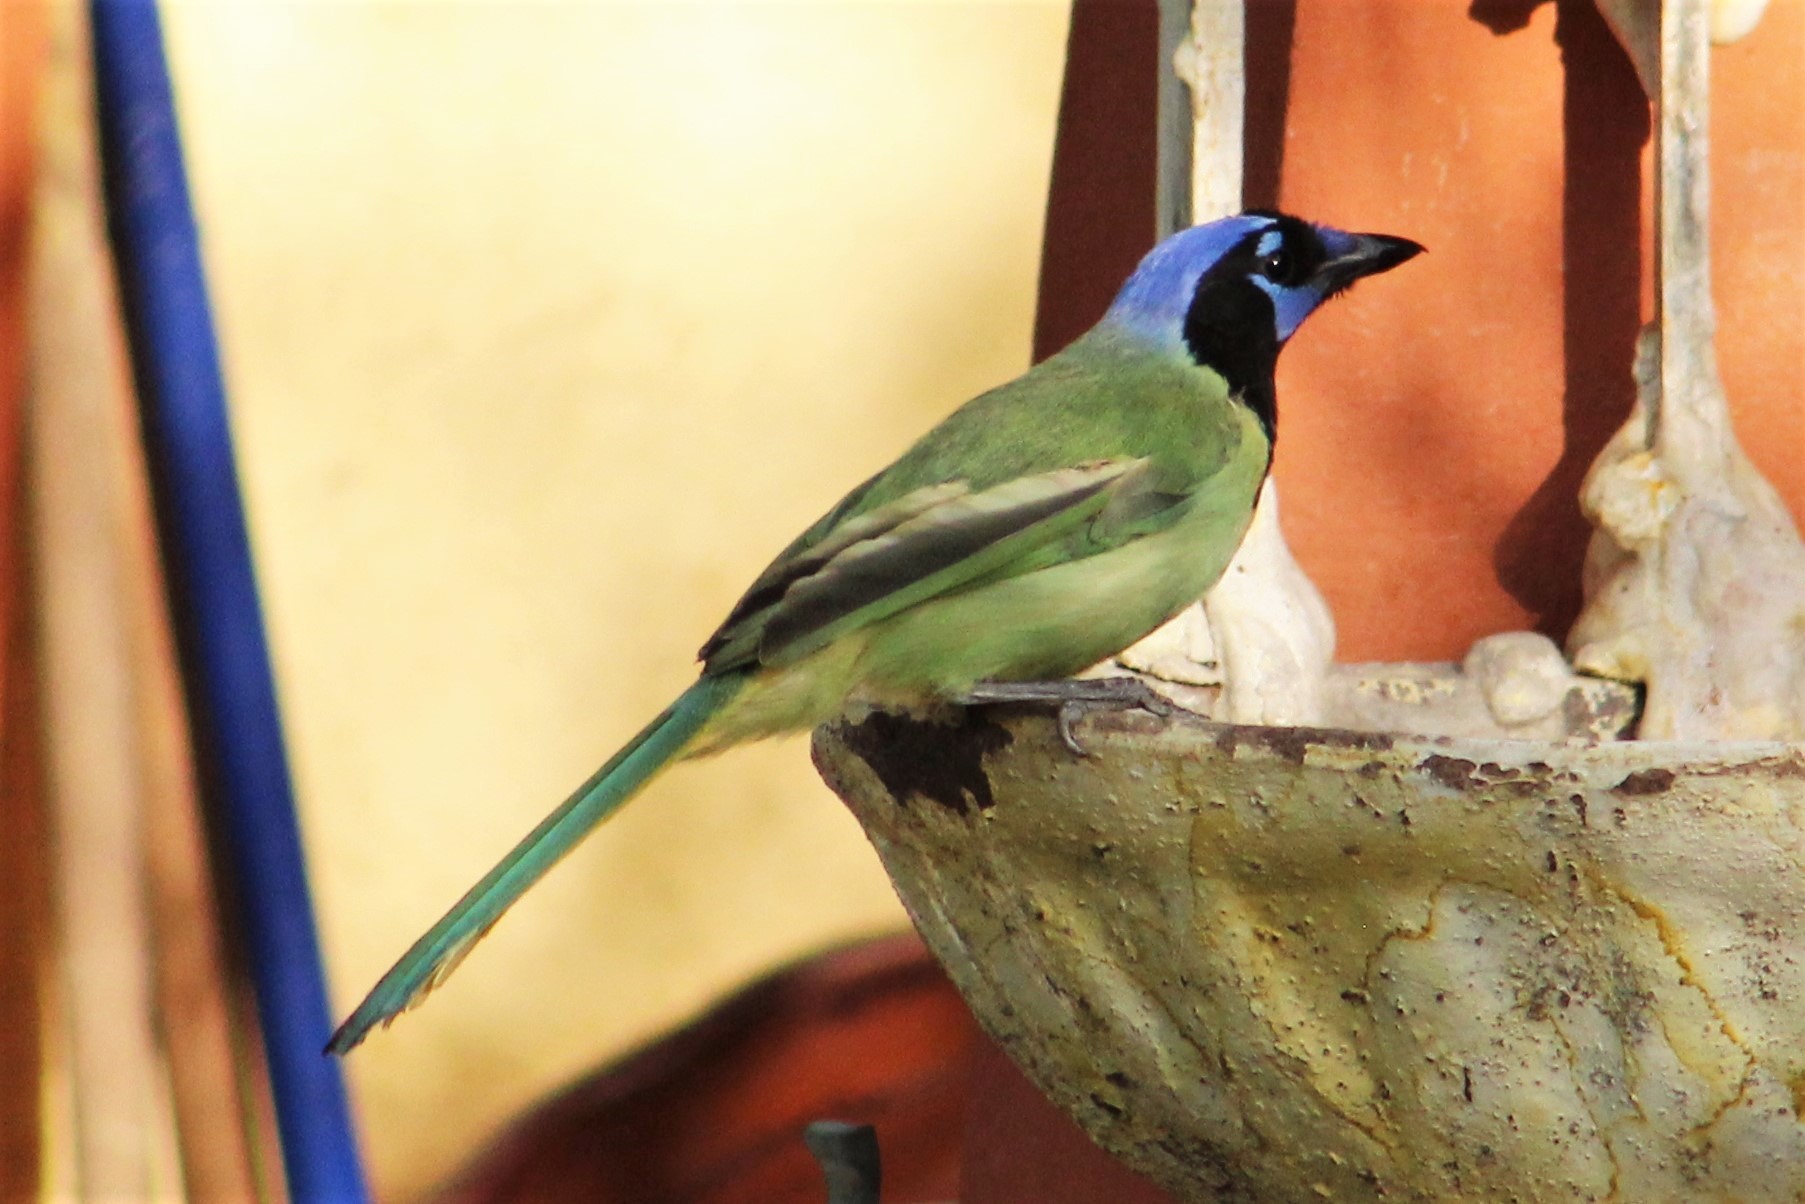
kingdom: Animalia
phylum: Chordata
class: Aves
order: Passeriformes
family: Corvidae
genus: Cyanocorax
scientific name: Cyanocorax yncas
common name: Green jay
